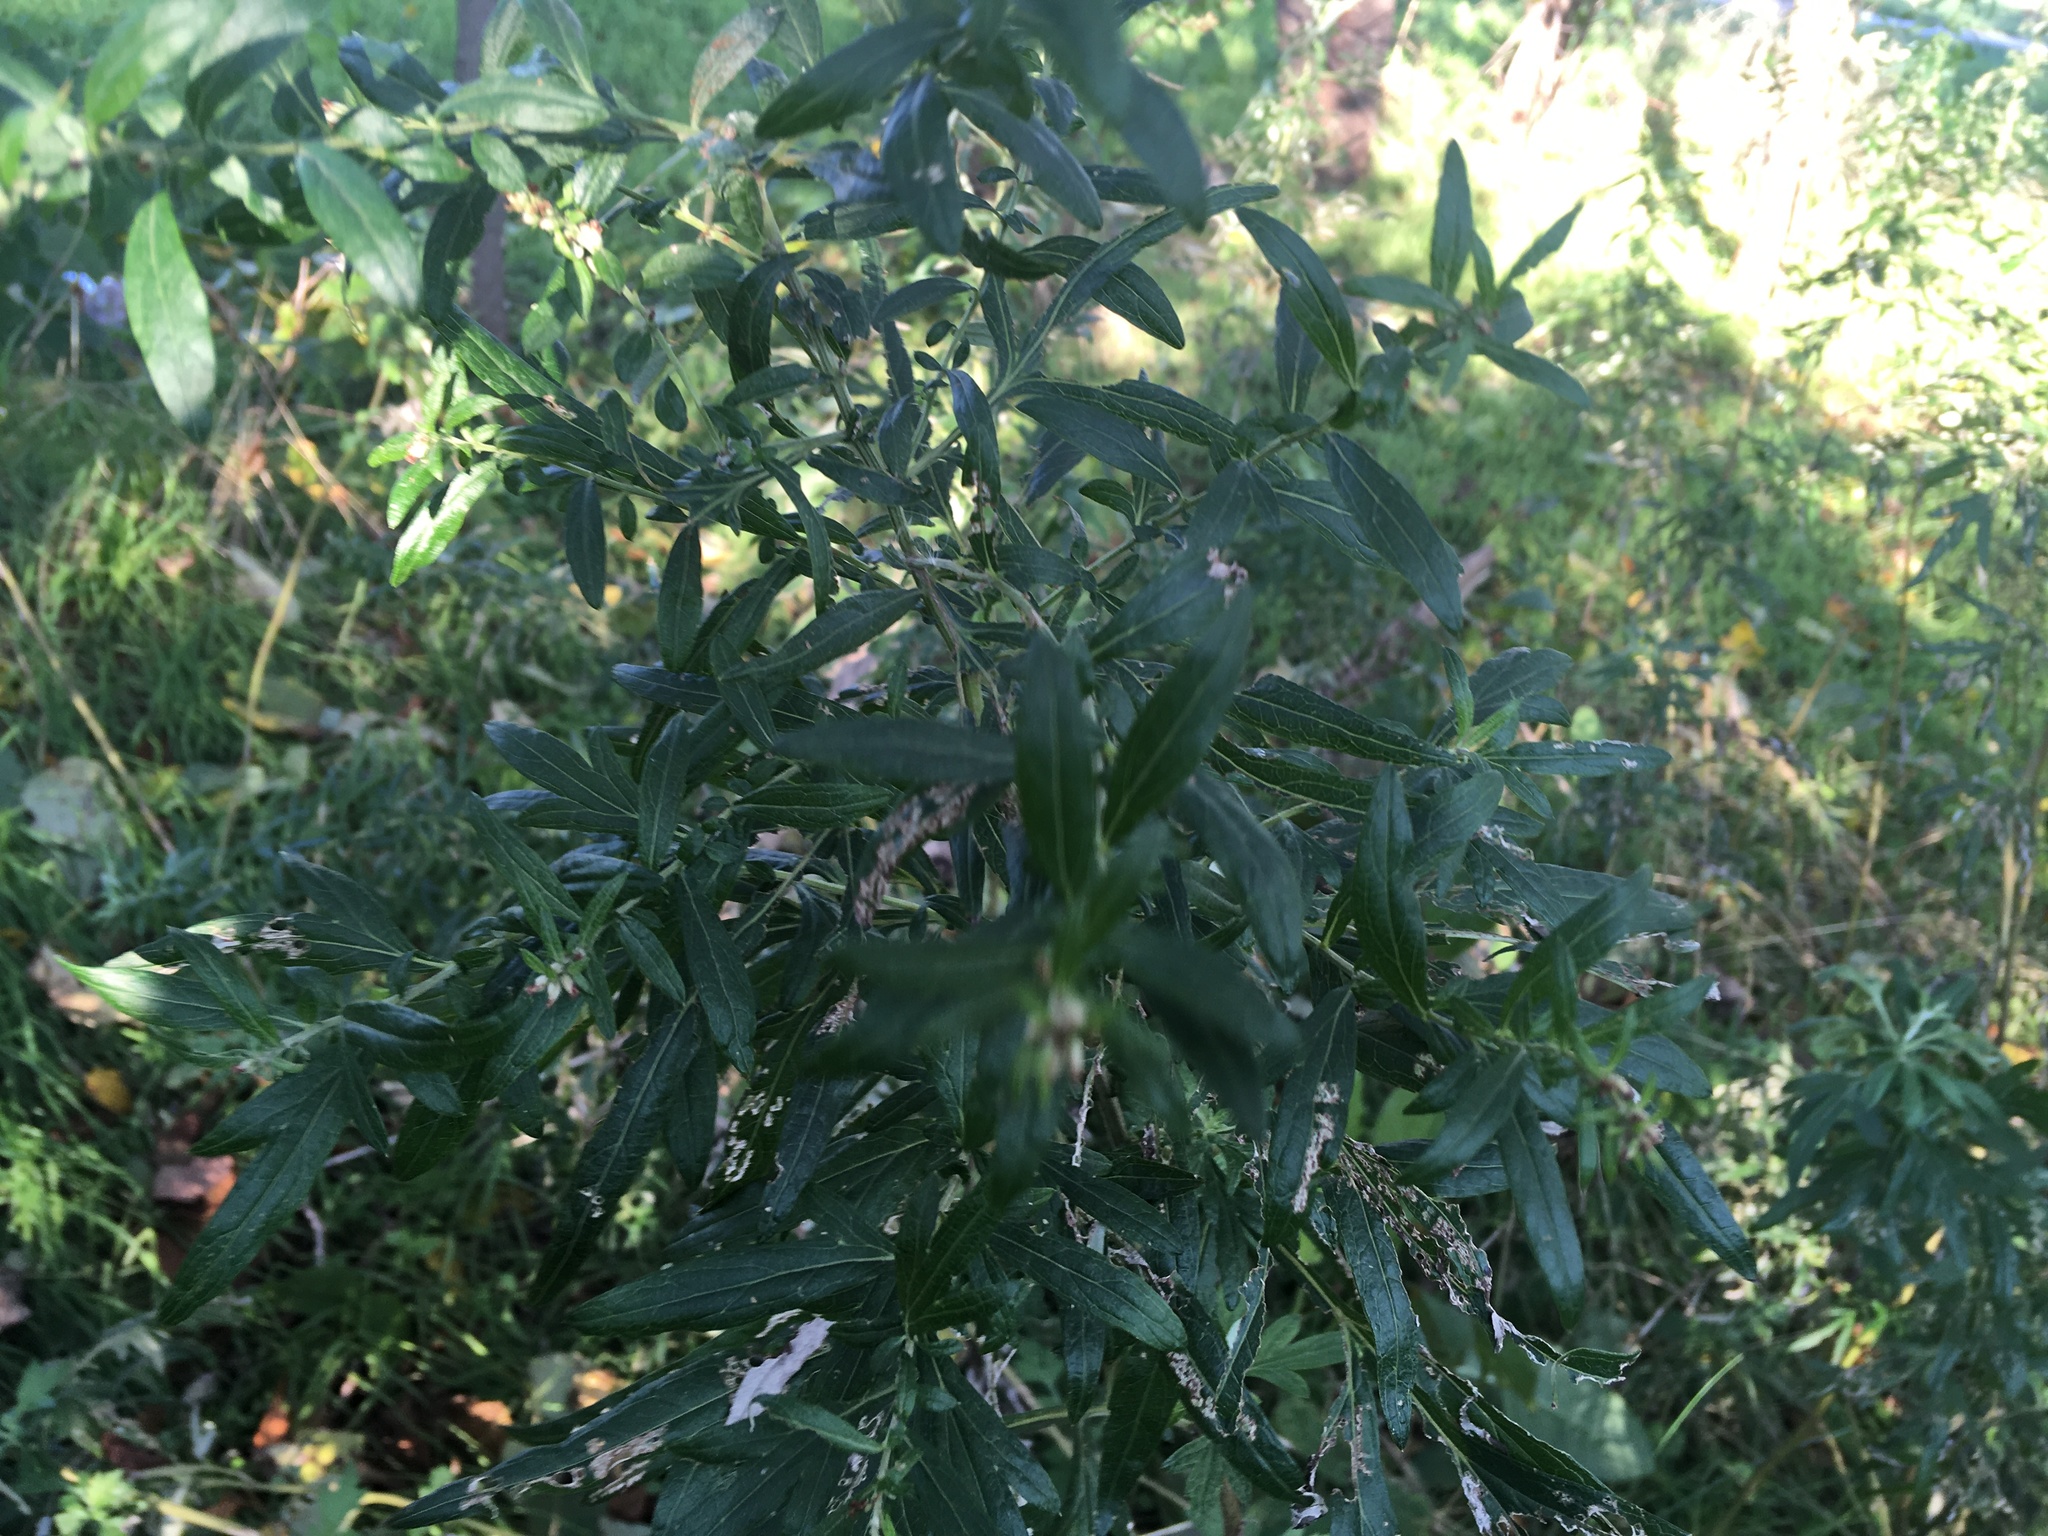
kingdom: Plantae
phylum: Tracheophyta
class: Magnoliopsida
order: Asterales
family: Asteraceae
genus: Artemisia
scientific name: Artemisia vulgaris
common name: Mugwort
